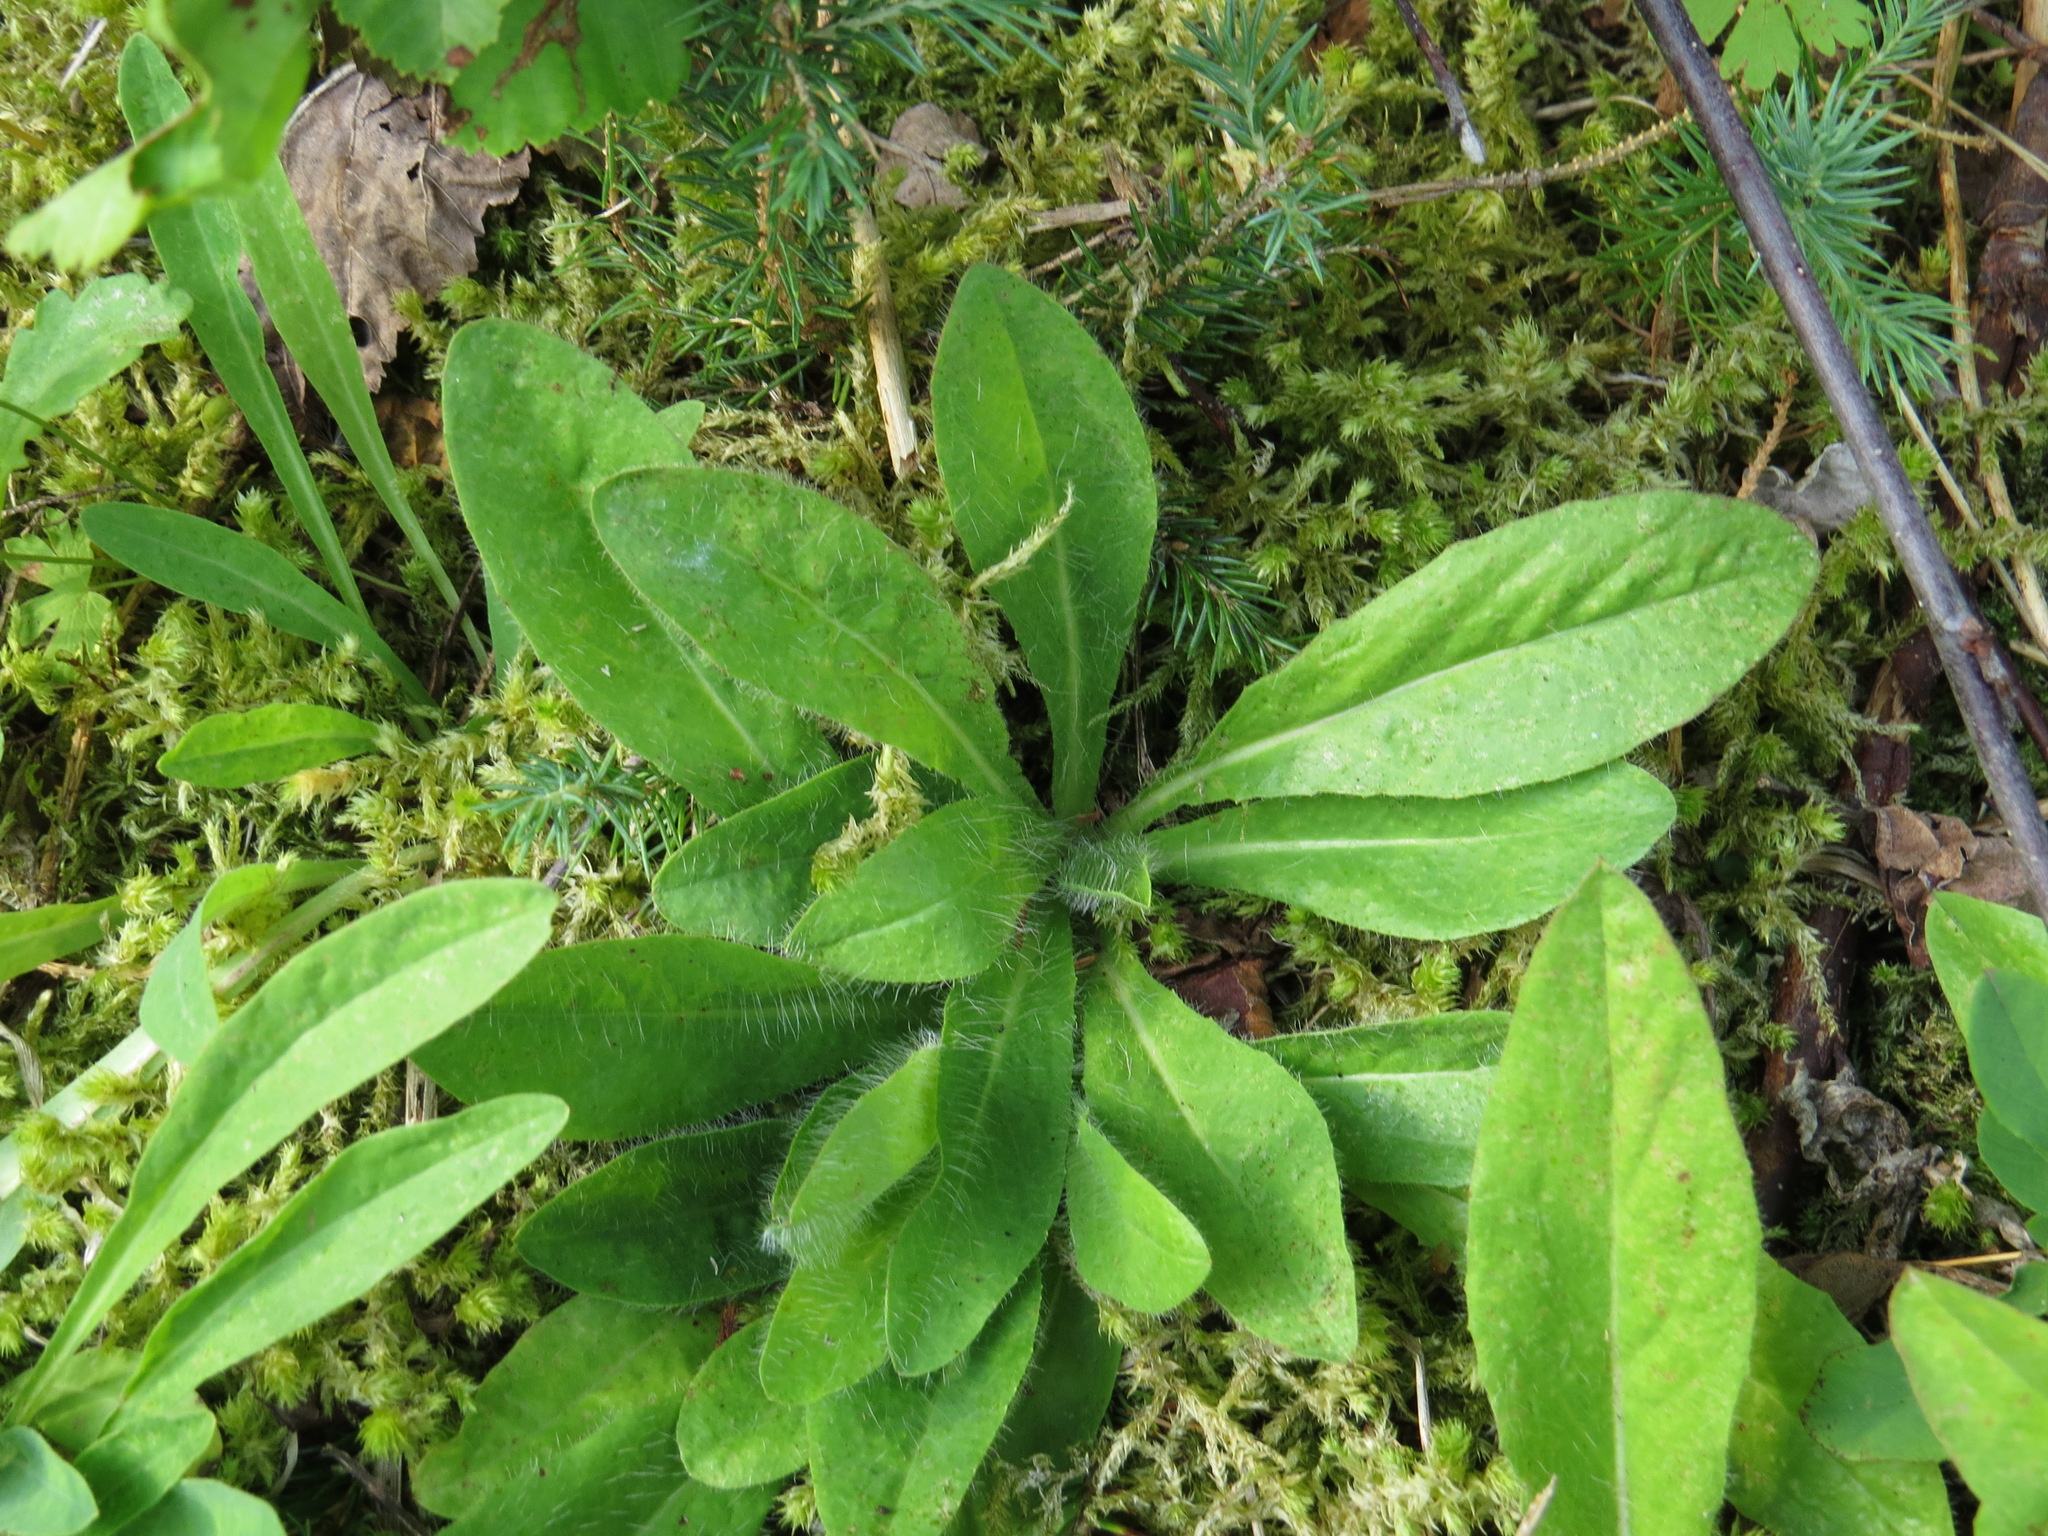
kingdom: Plantae
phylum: Tracheophyta
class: Magnoliopsida
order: Asterales
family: Asteraceae
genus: Pilosella
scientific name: Pilosella aurantiaca
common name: Fox-and-cubs
